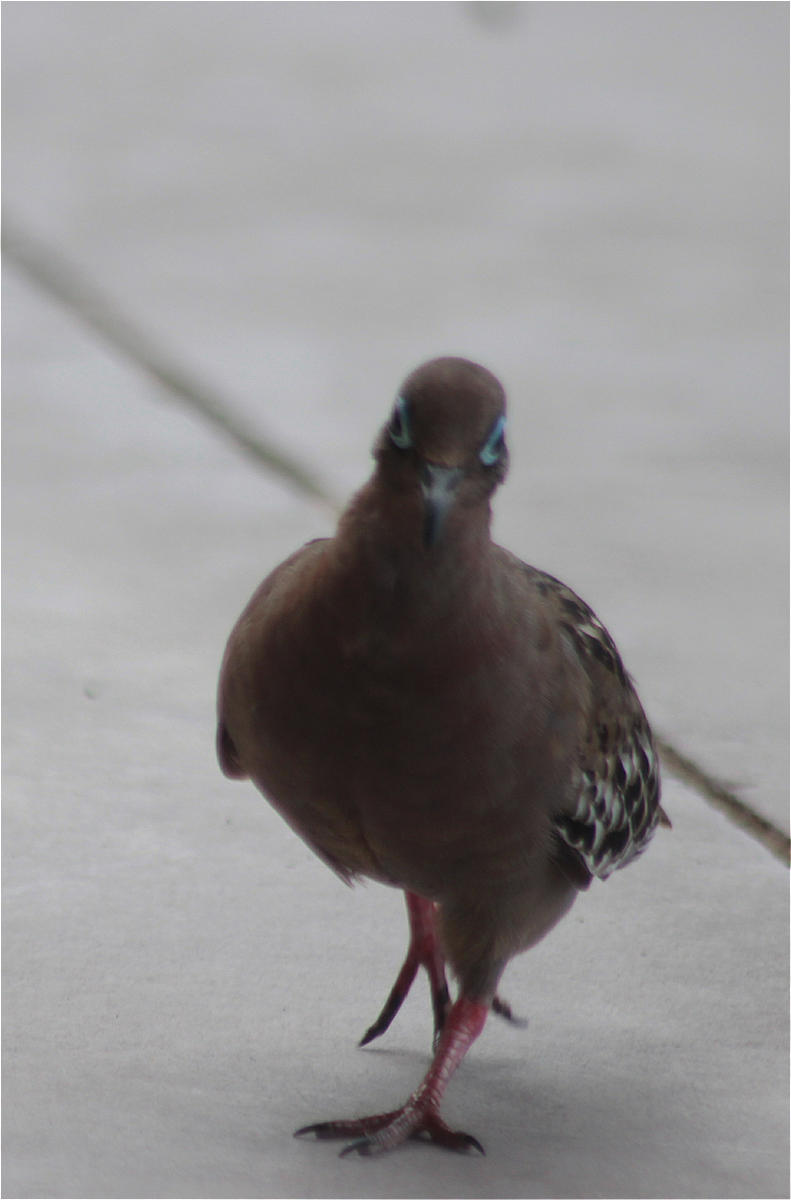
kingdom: Animalia
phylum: Chordata
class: Aves
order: Columbiformes
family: Columbidae
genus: Zenaida
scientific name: Zenaida galapagoensis
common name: Galapagos dove
